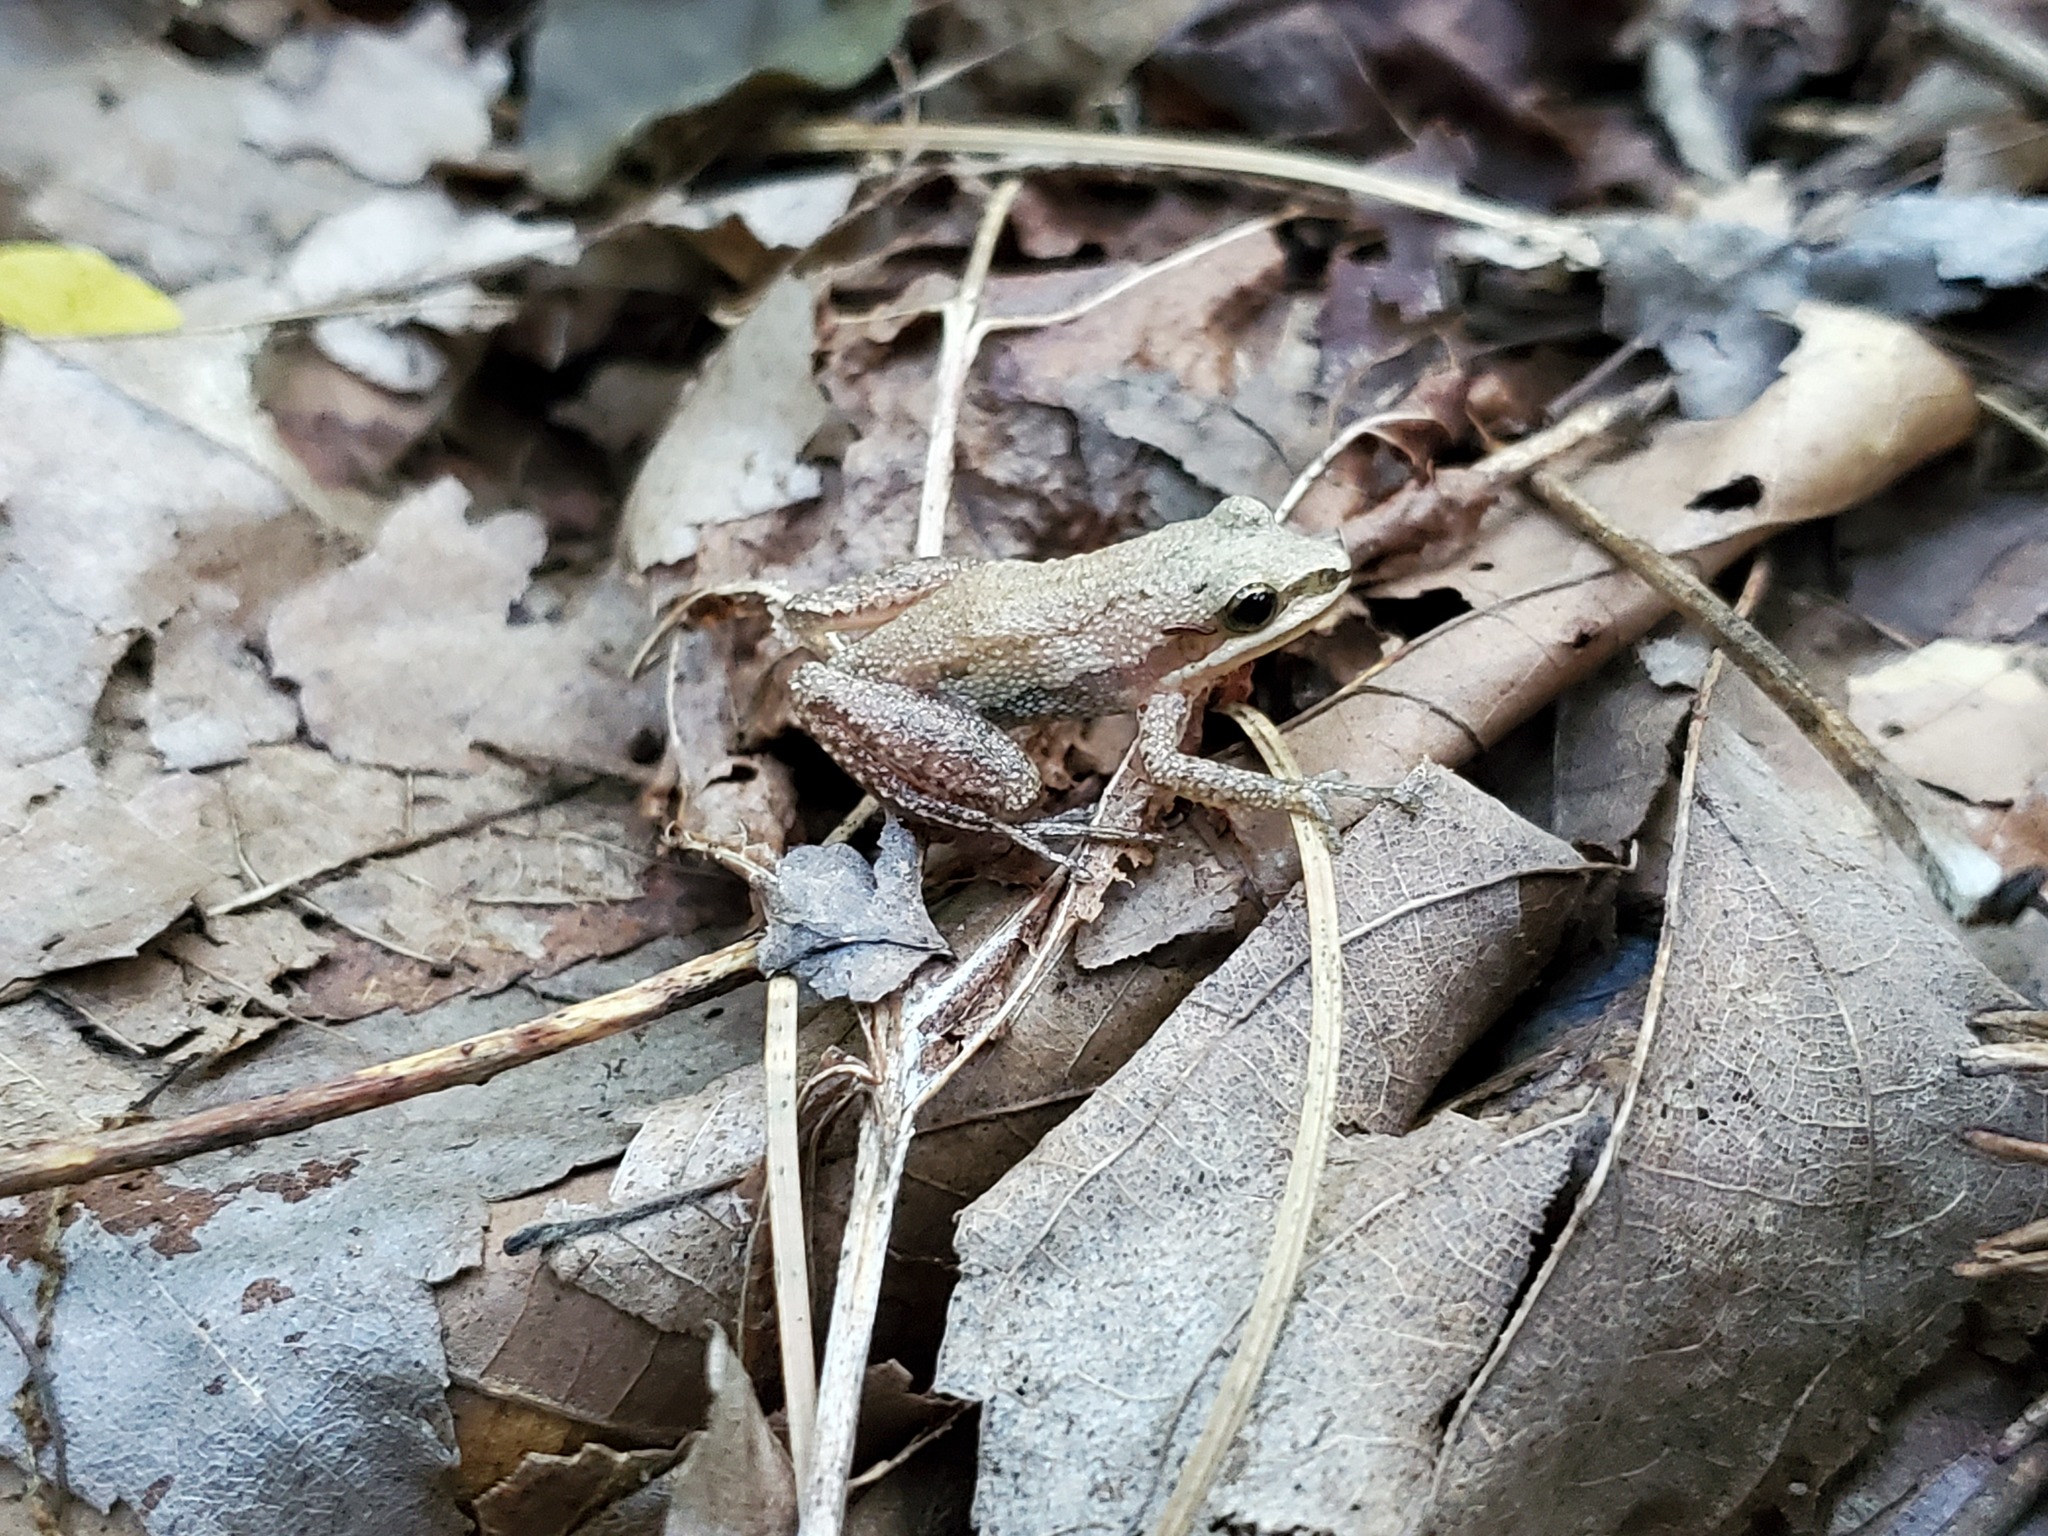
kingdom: Animalia
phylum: Chordata
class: Amphibia
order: Anura
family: Hylidae
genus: Pseudacris
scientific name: Pseudacris feriarum
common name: Upland chorus frog
